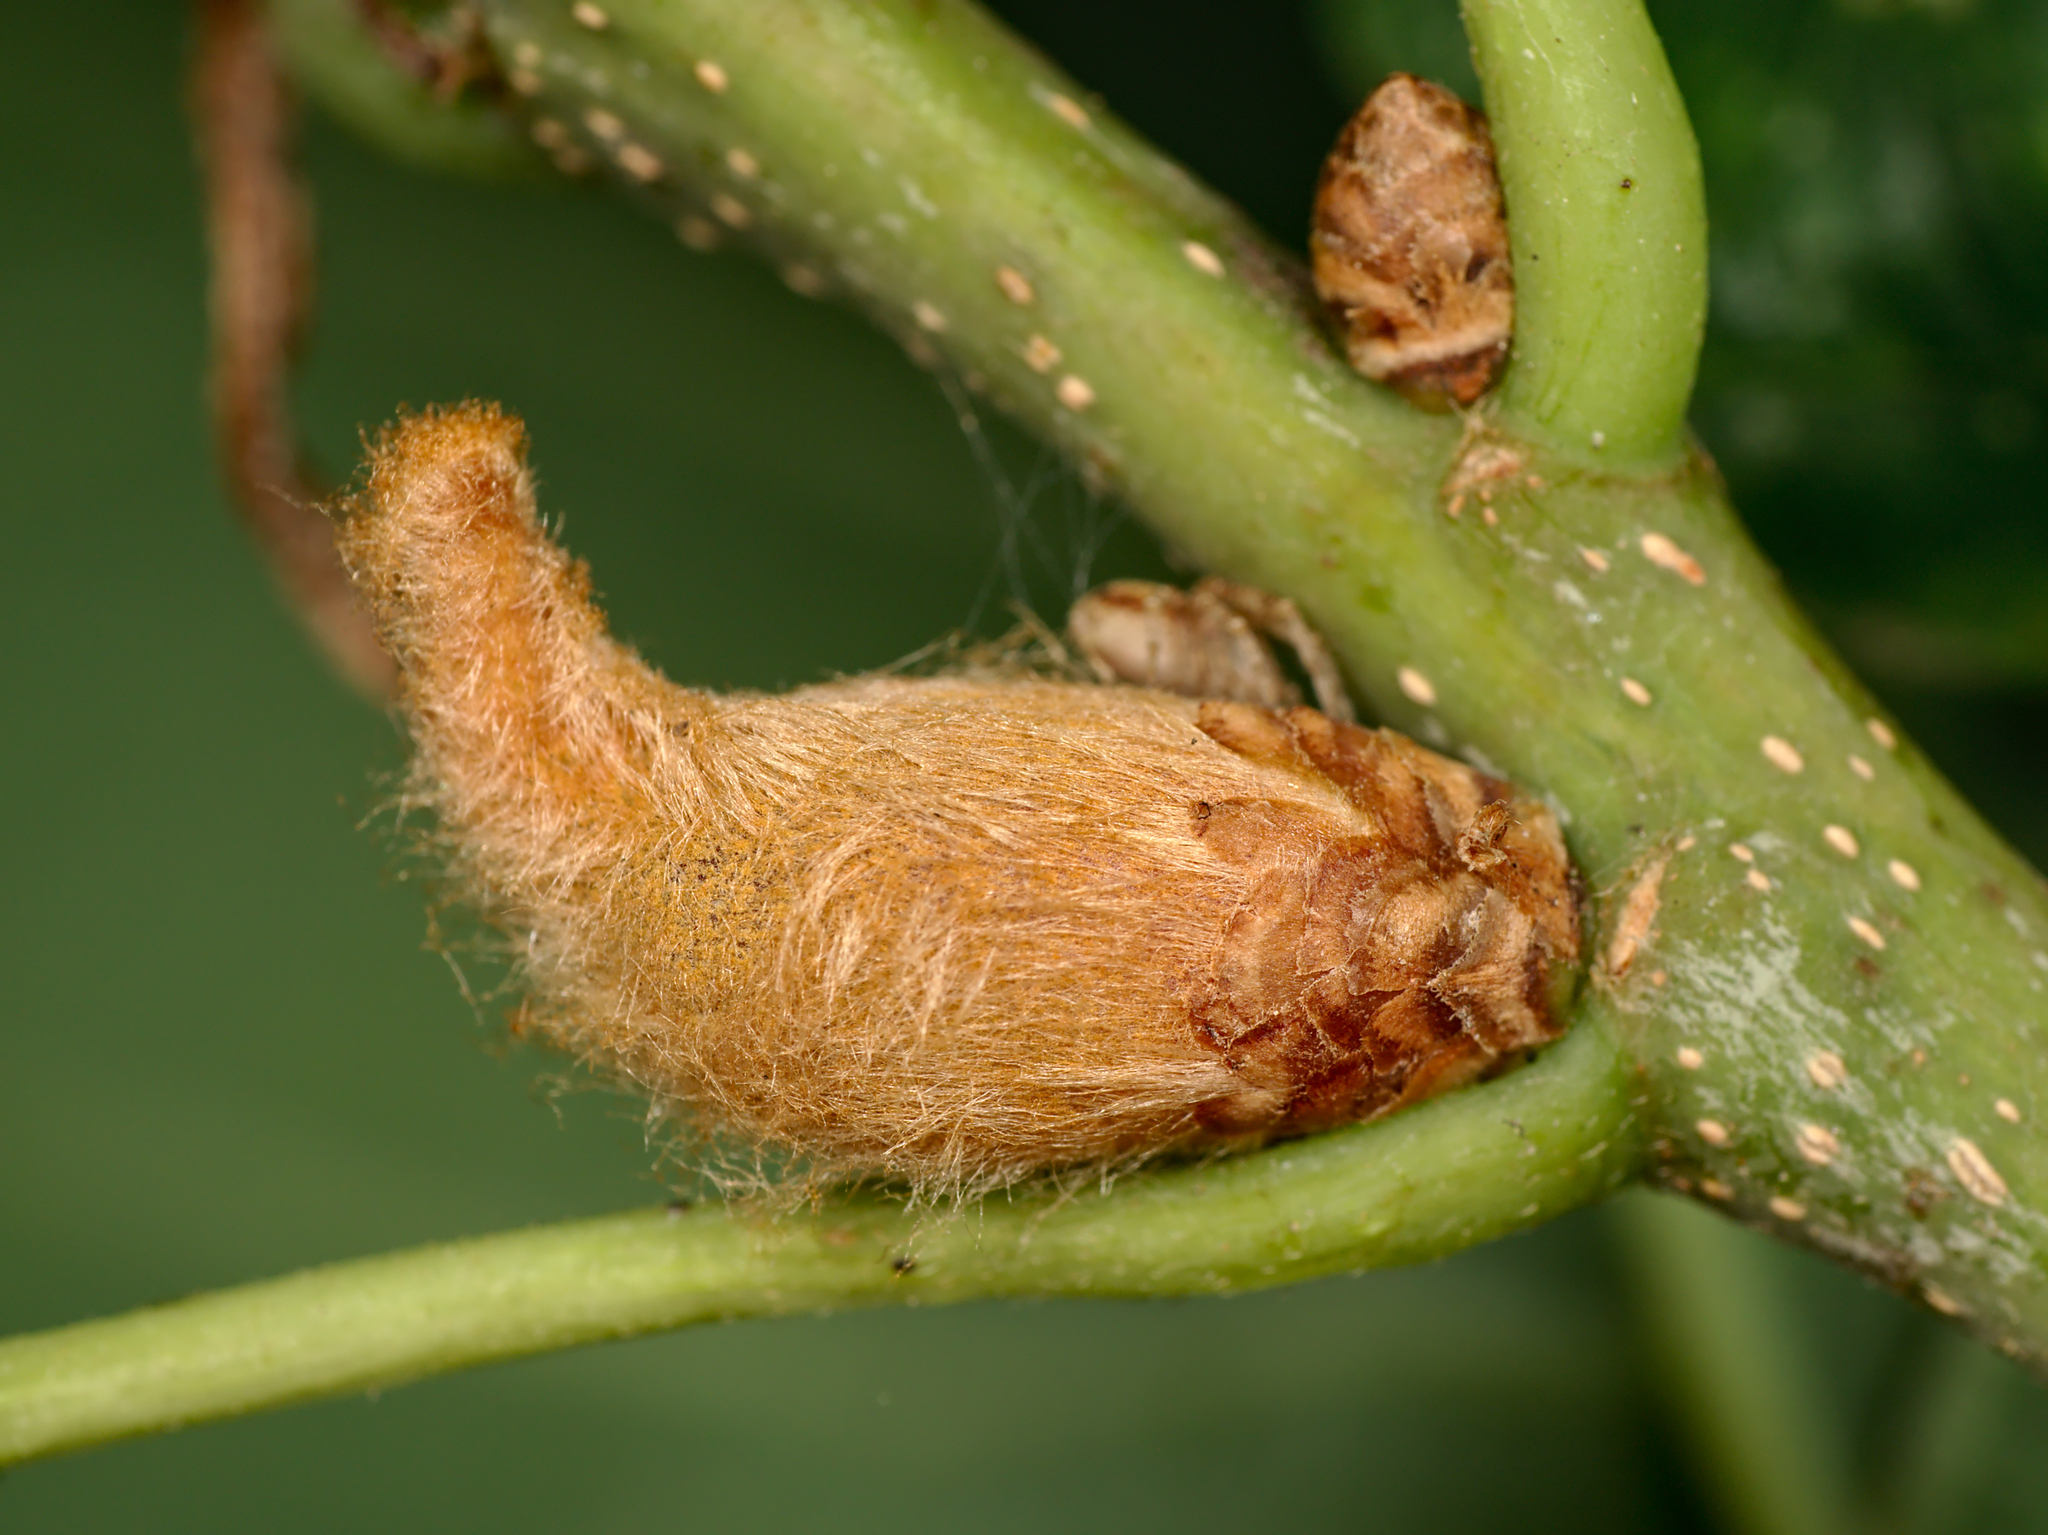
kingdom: Animalia
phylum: Arthropoda
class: Insecta
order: Hymenoptera
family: Cynipidae
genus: Andricus
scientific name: Andricus solitarius
